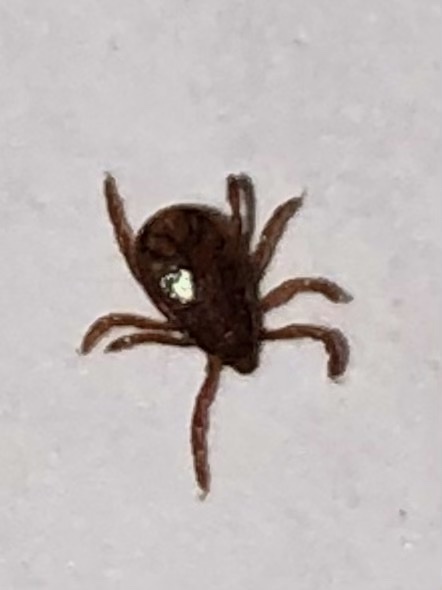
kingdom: Animalia
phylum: Arthropoda
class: Arachnida
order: Ixodida
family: Ixodidae
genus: Rhipicephalus
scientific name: Rhipicephalus sanguineus
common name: Brown dog tick
